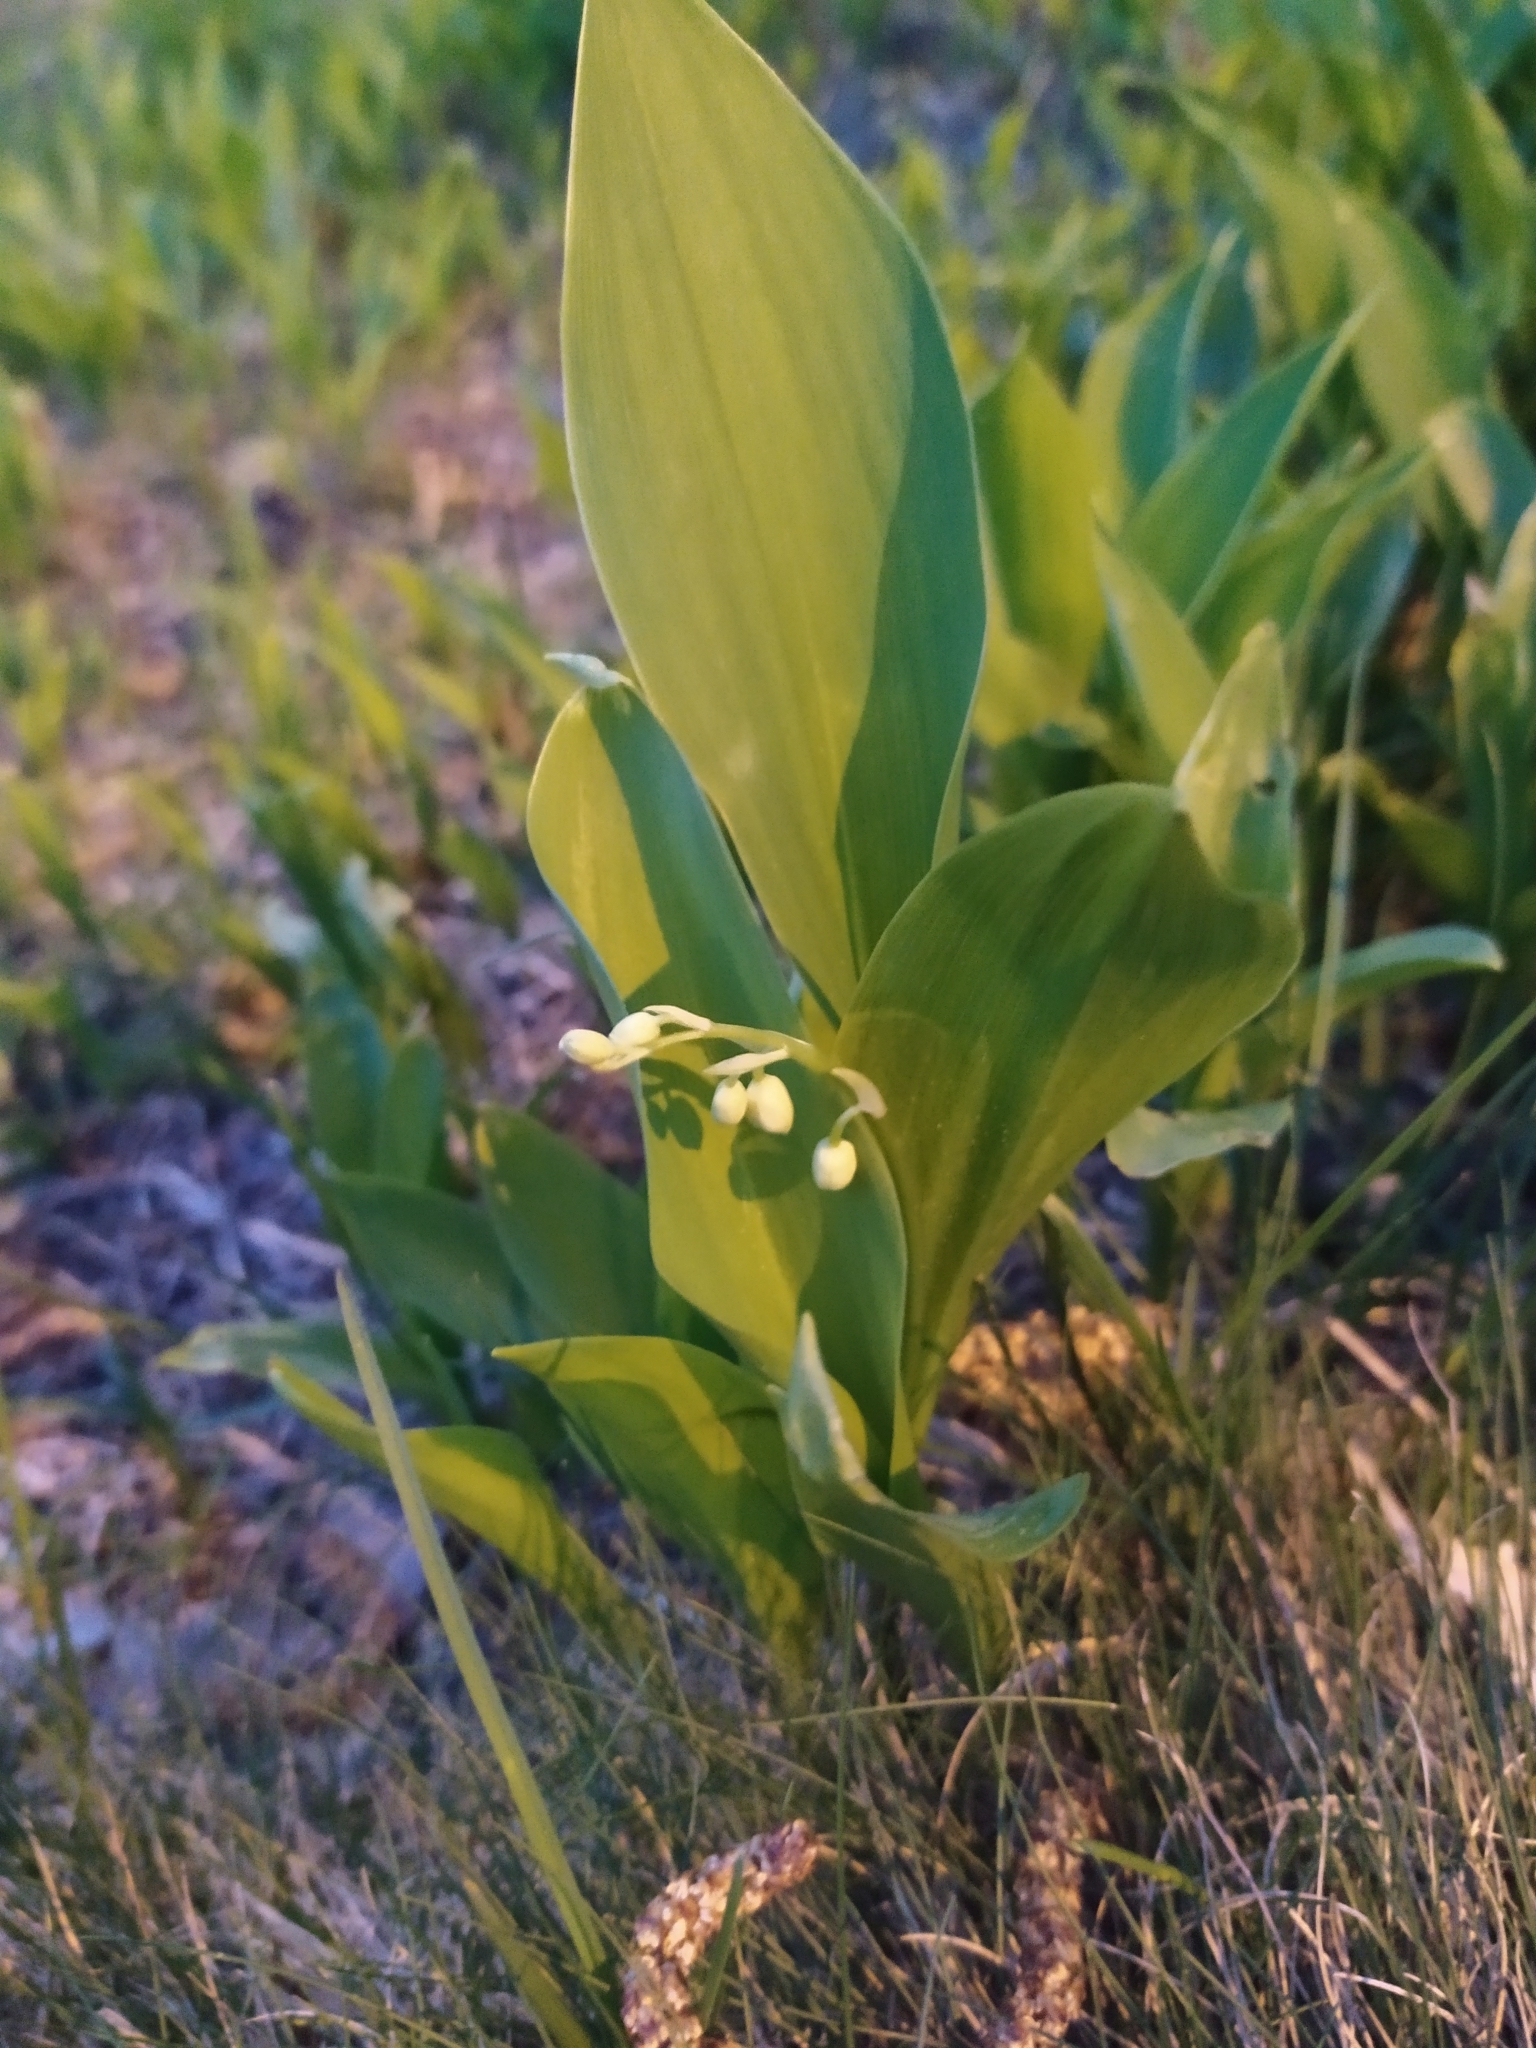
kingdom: Plantae
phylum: Tracheophyta
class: Liliopsida
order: Asparagales
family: Asparagaceae
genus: Convallaria
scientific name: Convallaria majalis
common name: Lily-of-the-valley
